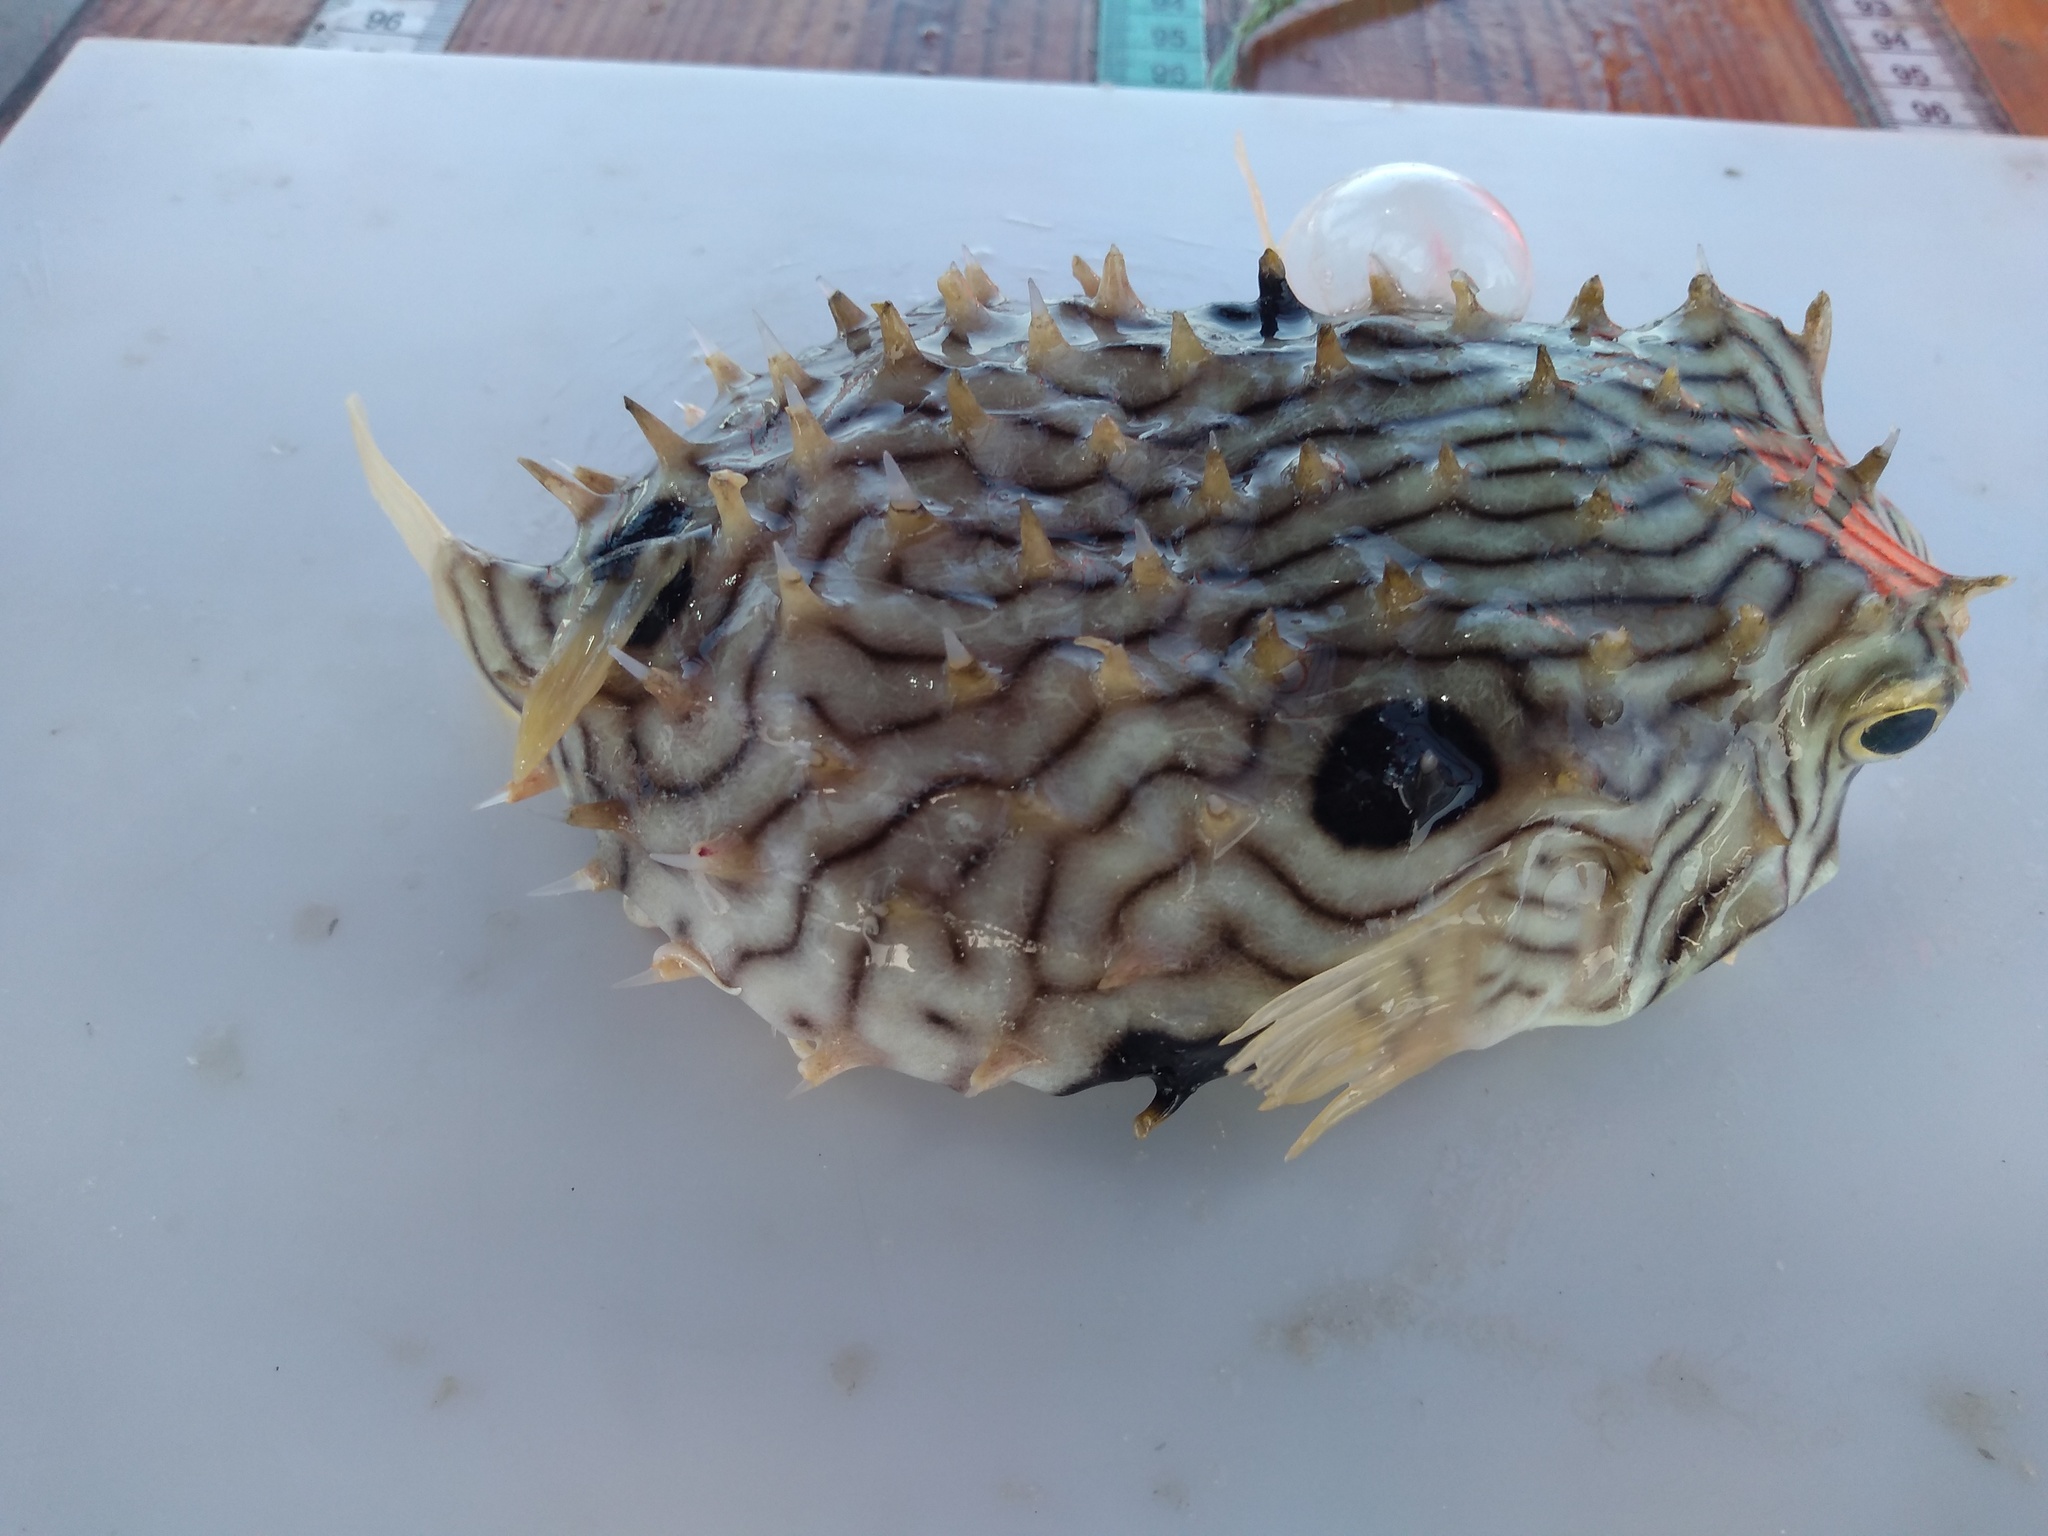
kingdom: Animalia
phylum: Chordata
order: Tetraodontiformes
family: Diodontidae
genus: Chilomycterus
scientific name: Chilomycterus schoepfii
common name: Striped burrfish
